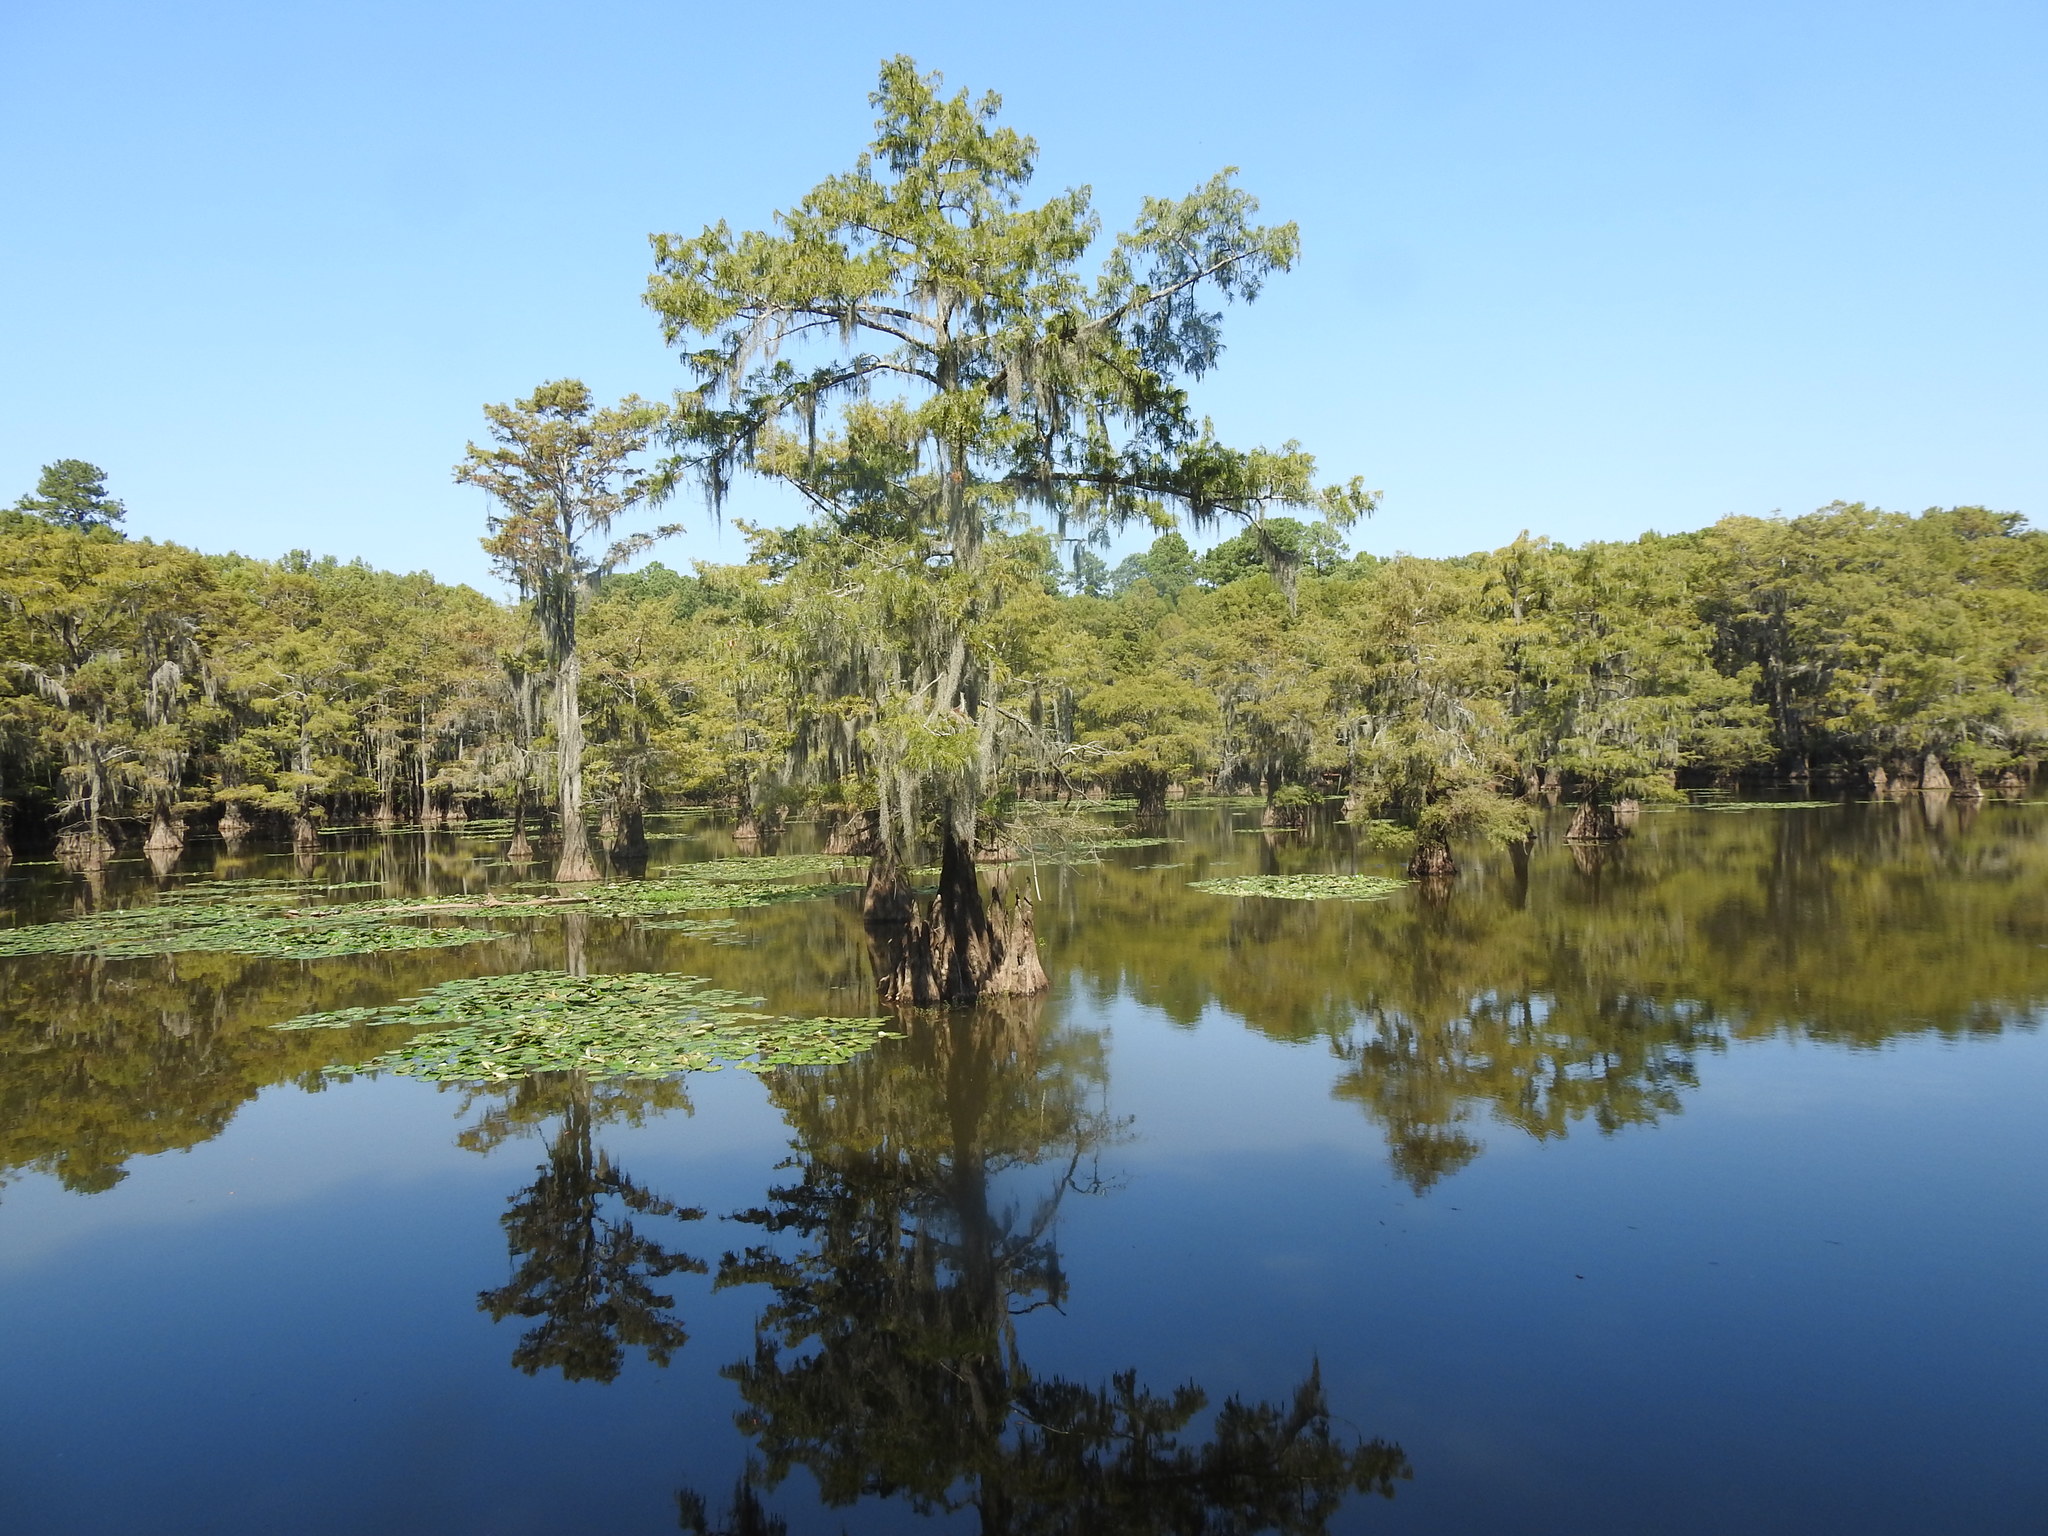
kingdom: Plantae
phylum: Tracheophyta
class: Pinopsida
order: Pinales
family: Cupressaceae
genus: Taxodium
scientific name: Taxodium distichum
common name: Bald cypress
